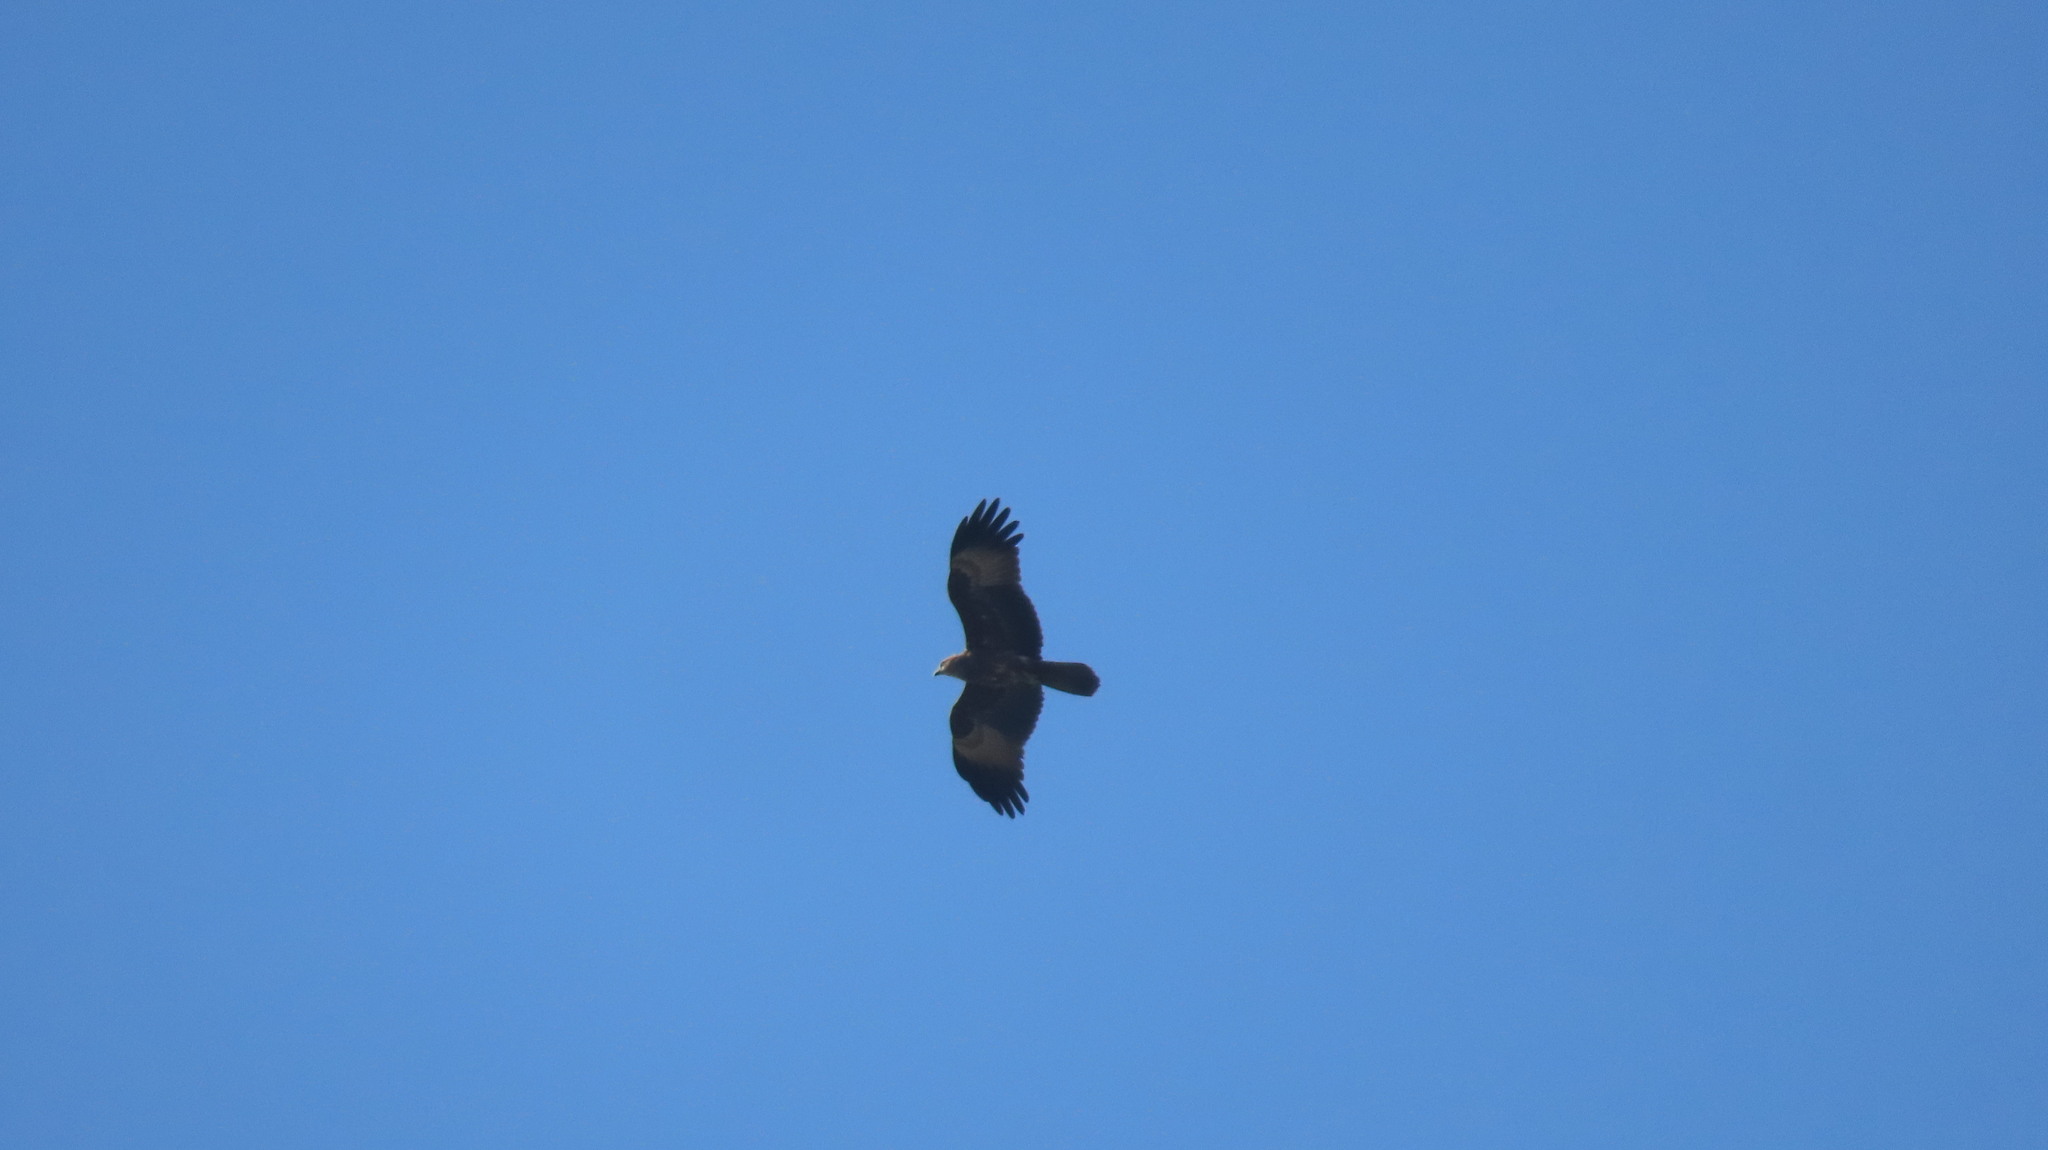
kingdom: Animalia
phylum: Chordata
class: Aves
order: Accipitriformes
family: Accipitridae
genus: Haliastur
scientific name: Haliastur indus
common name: Brahminy kite
